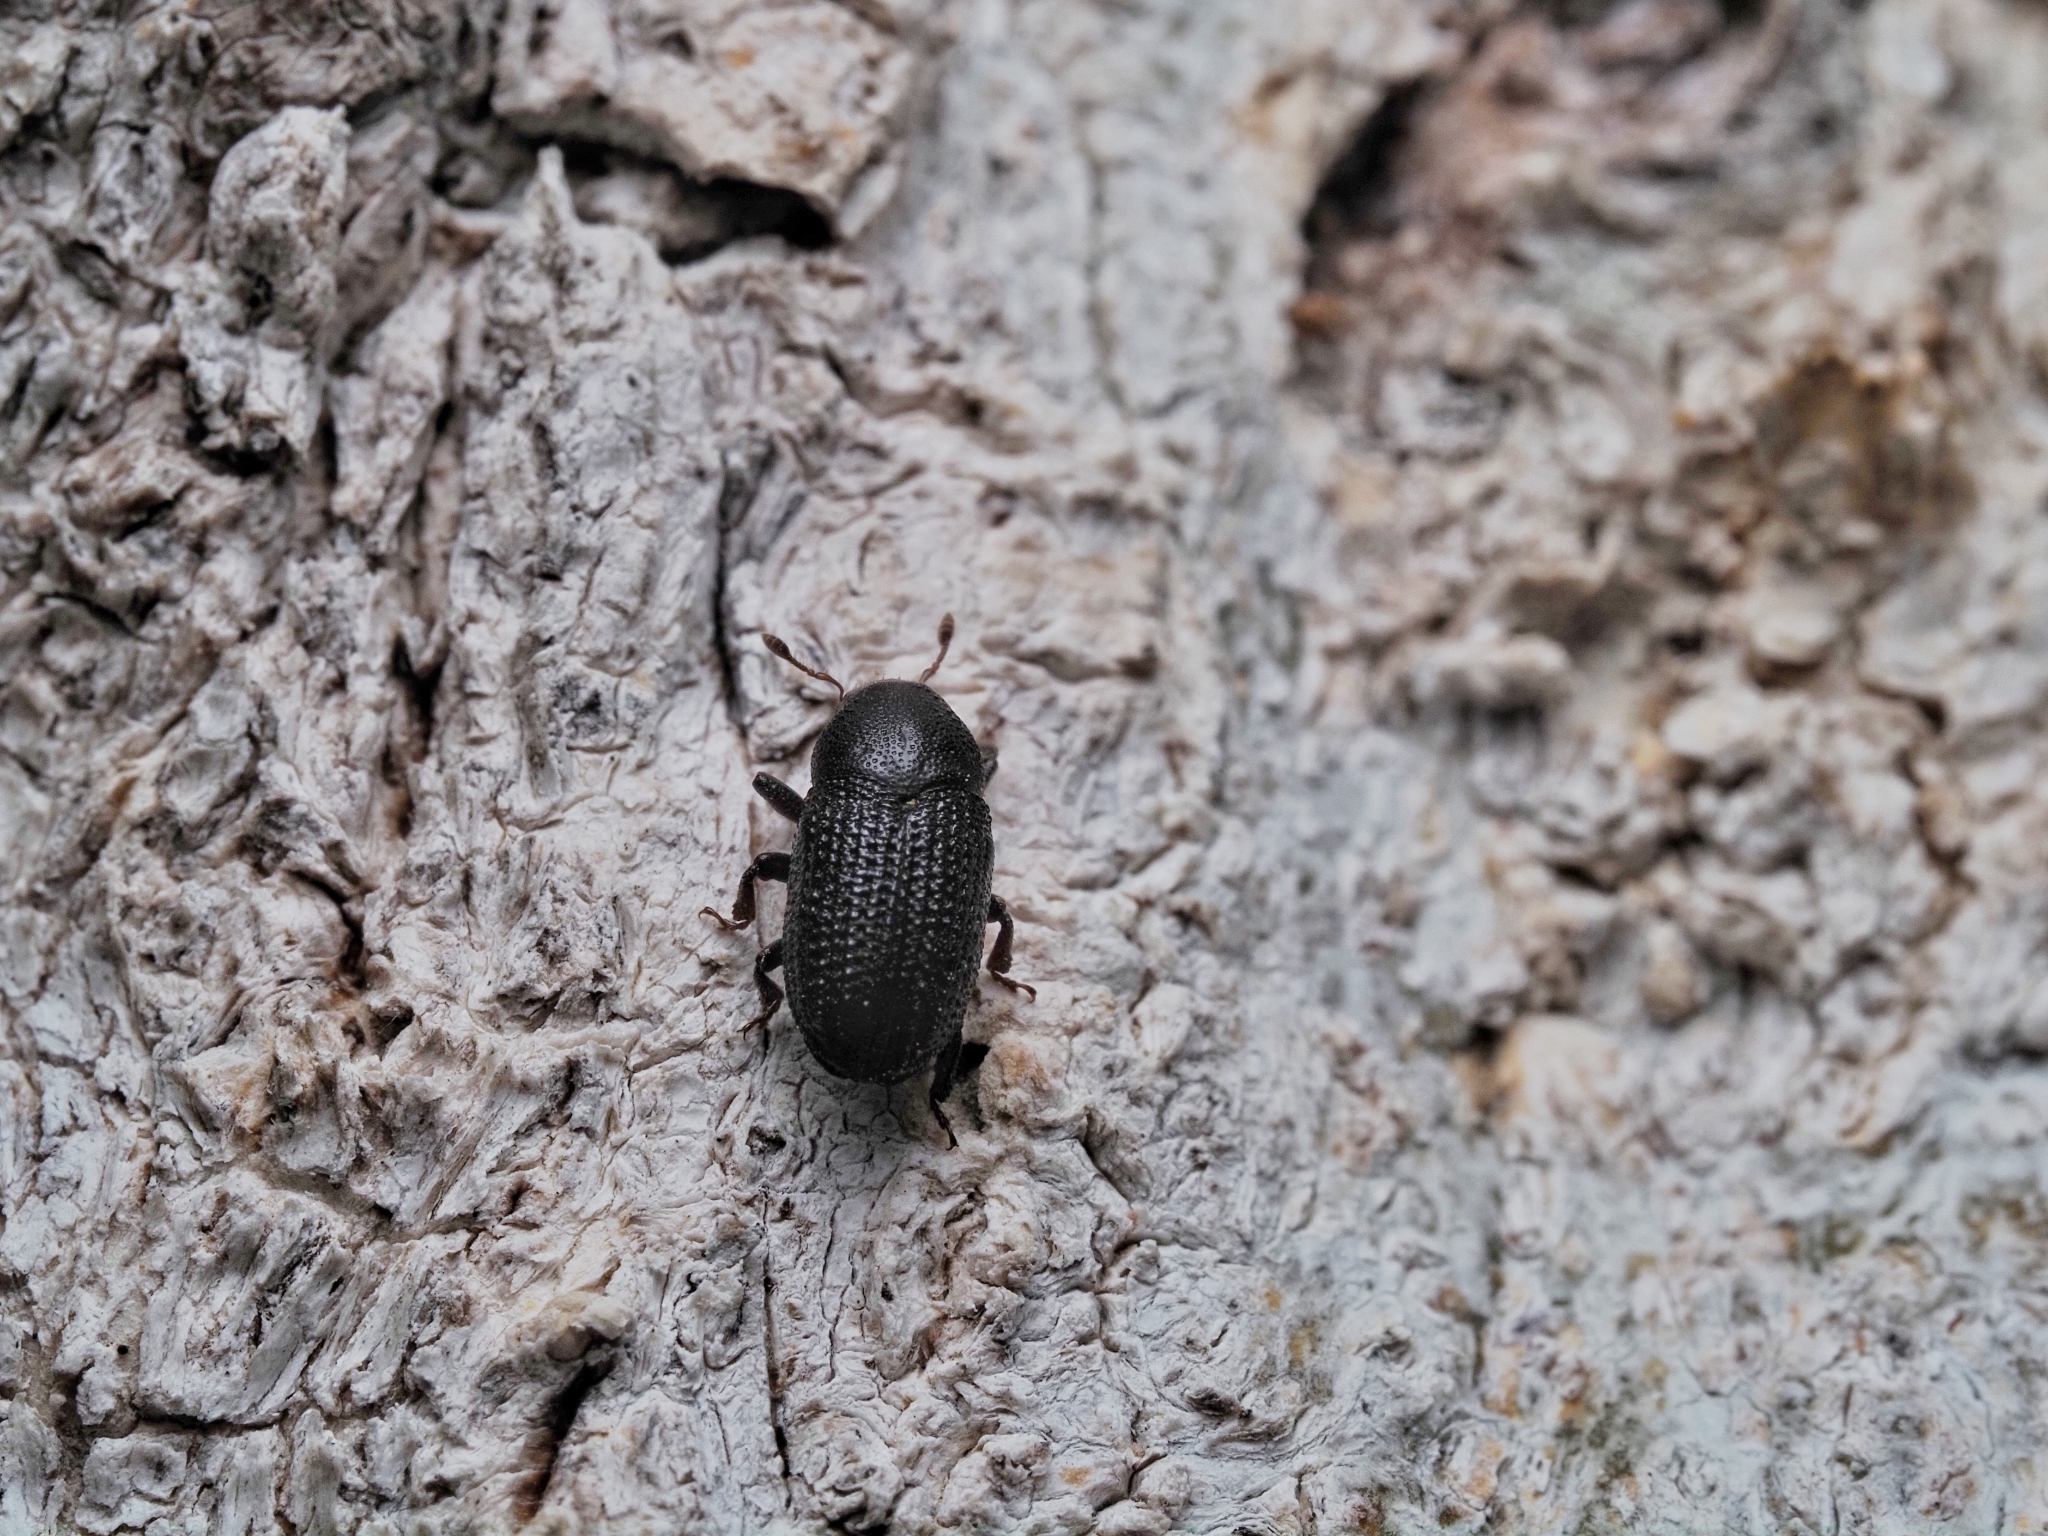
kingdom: Animalia
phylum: Arthropoda
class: Insecta
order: Coleoptera
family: Curculionidae
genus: Hylesinus
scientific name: Hylesinus crenatus
